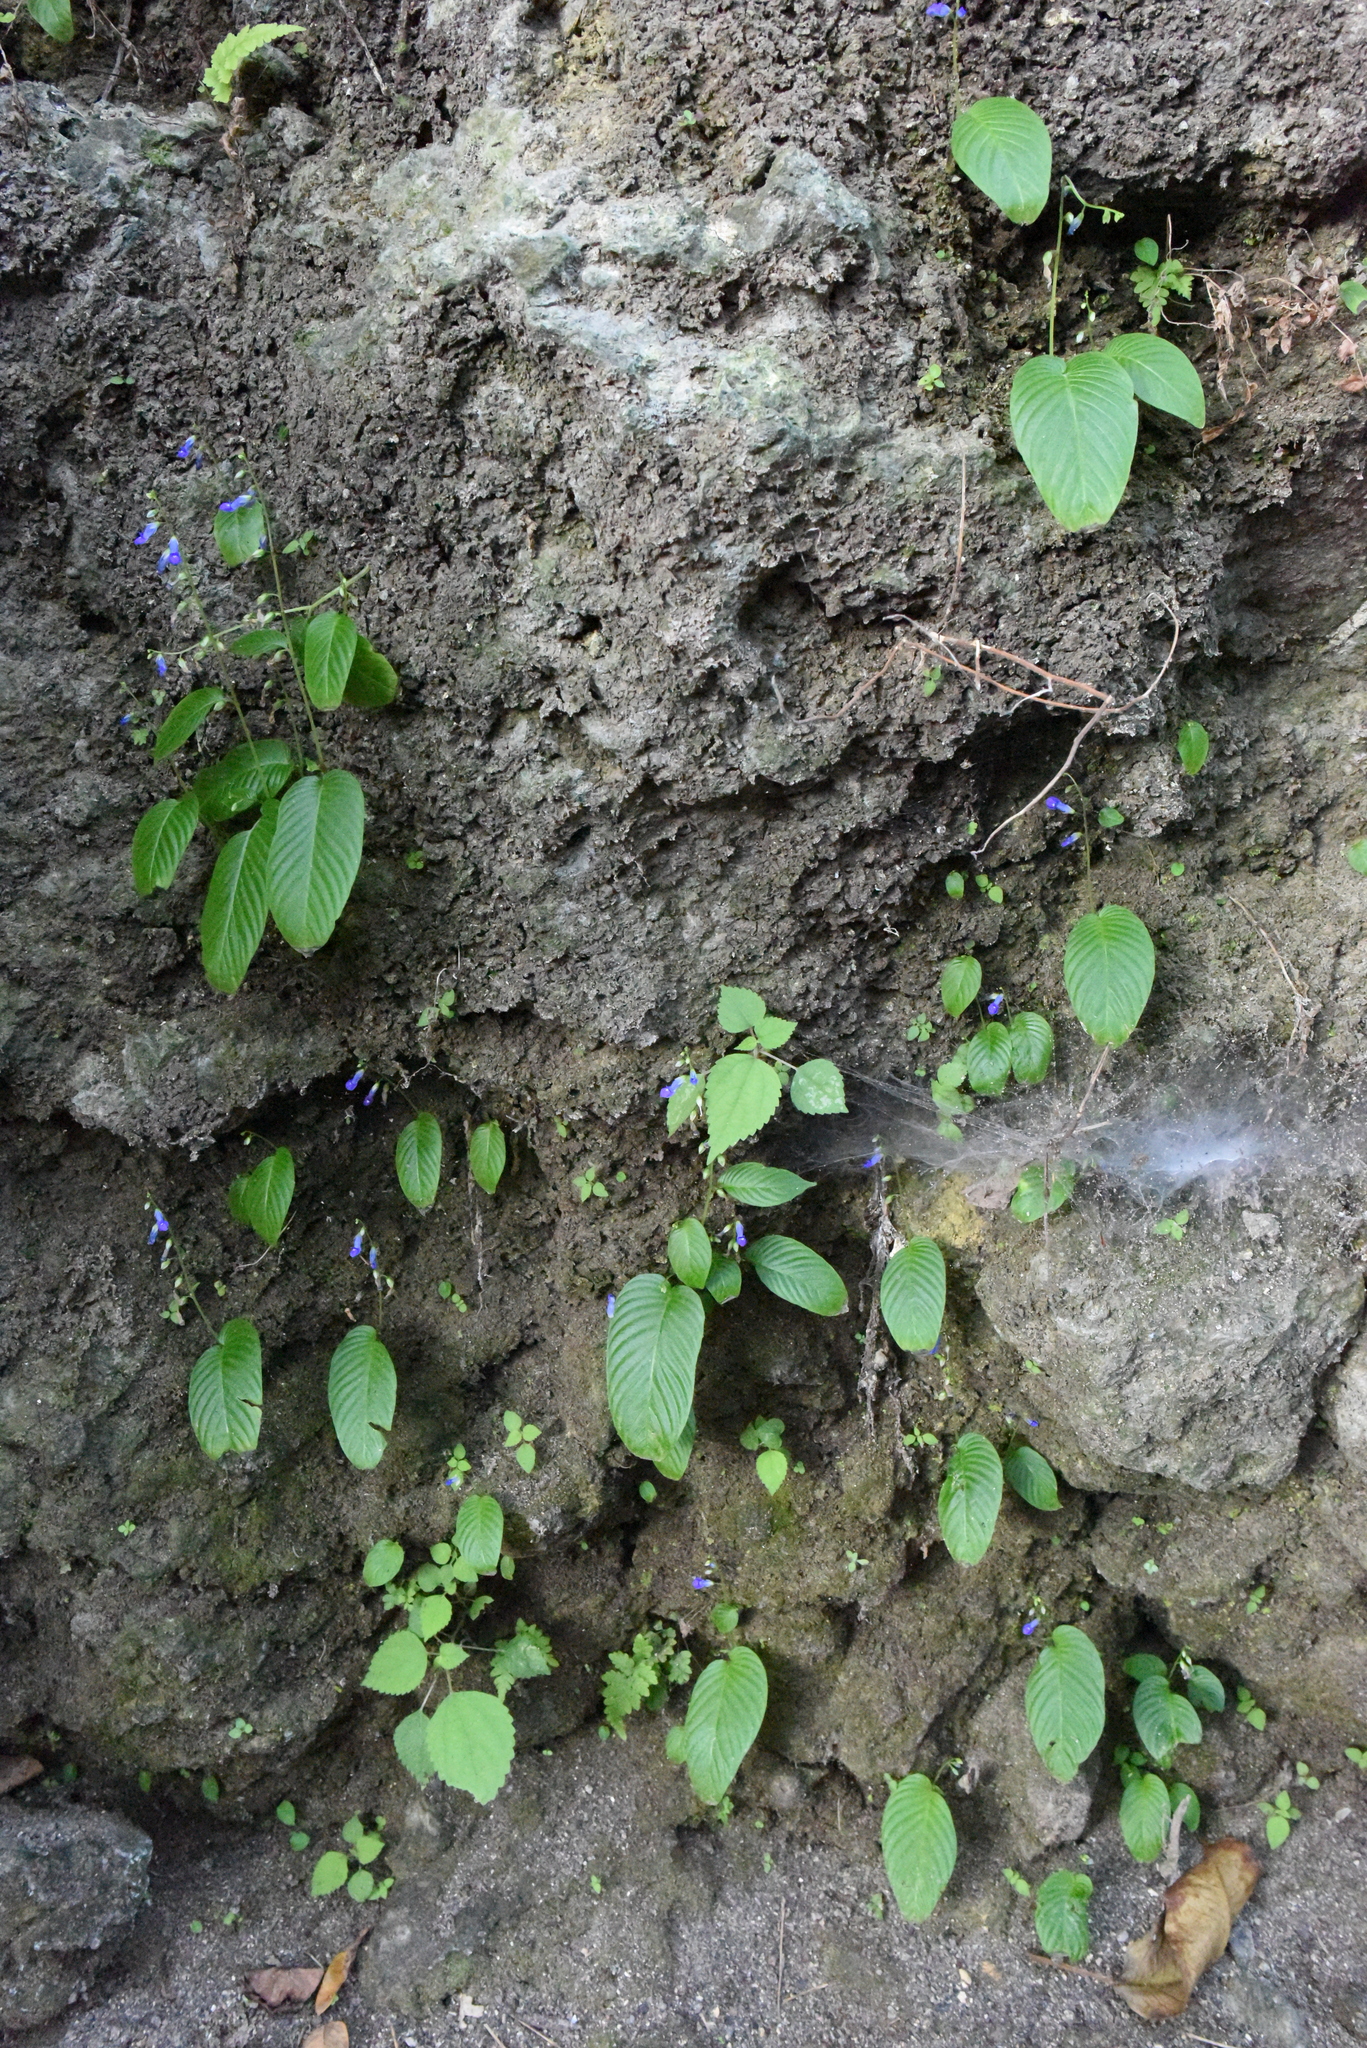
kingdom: Plantae
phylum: Tracheophyta
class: Magnoliopsida
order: Lamiales
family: Gesneriaceae
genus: Rhynchoglossum
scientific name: Rhynchoglossum obliquum
